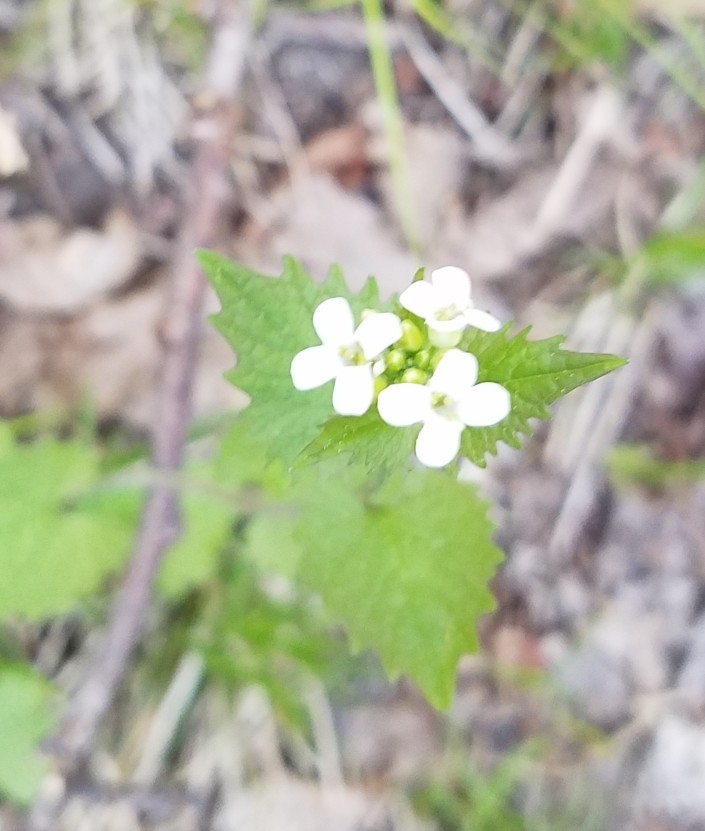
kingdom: Plantae
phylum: Tracheophyta
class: Magnoliopsida
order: Brassicales
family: Brassicaceae
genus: Alliaria
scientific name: Alliaria petiolata
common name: Garlic mustard
